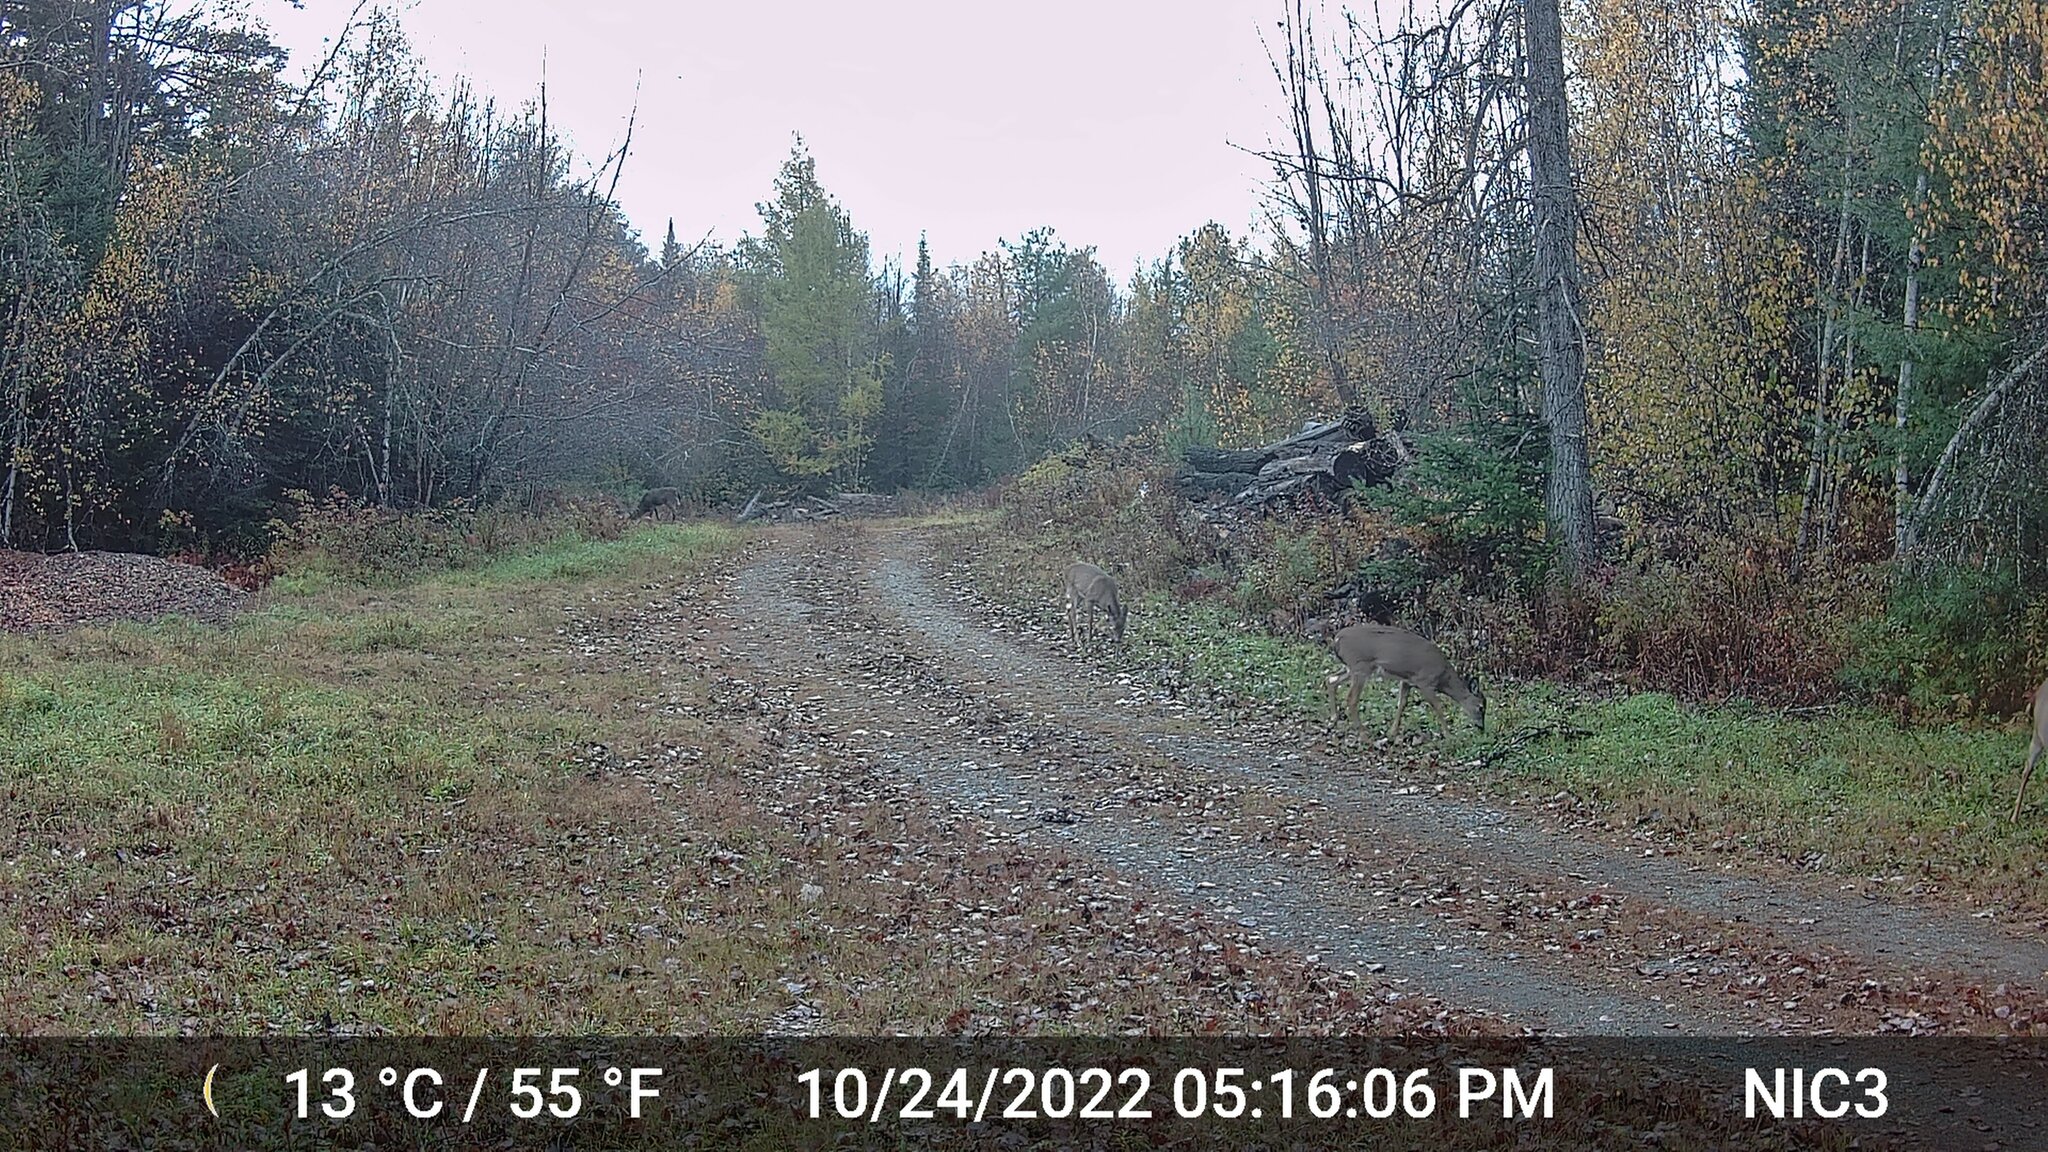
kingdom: Animalia
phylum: Chordata
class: Mammalia
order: Artiodactyla
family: Cervidae
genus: Odocoileus
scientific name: Odocoileus virginianus
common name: White-tailed deer
